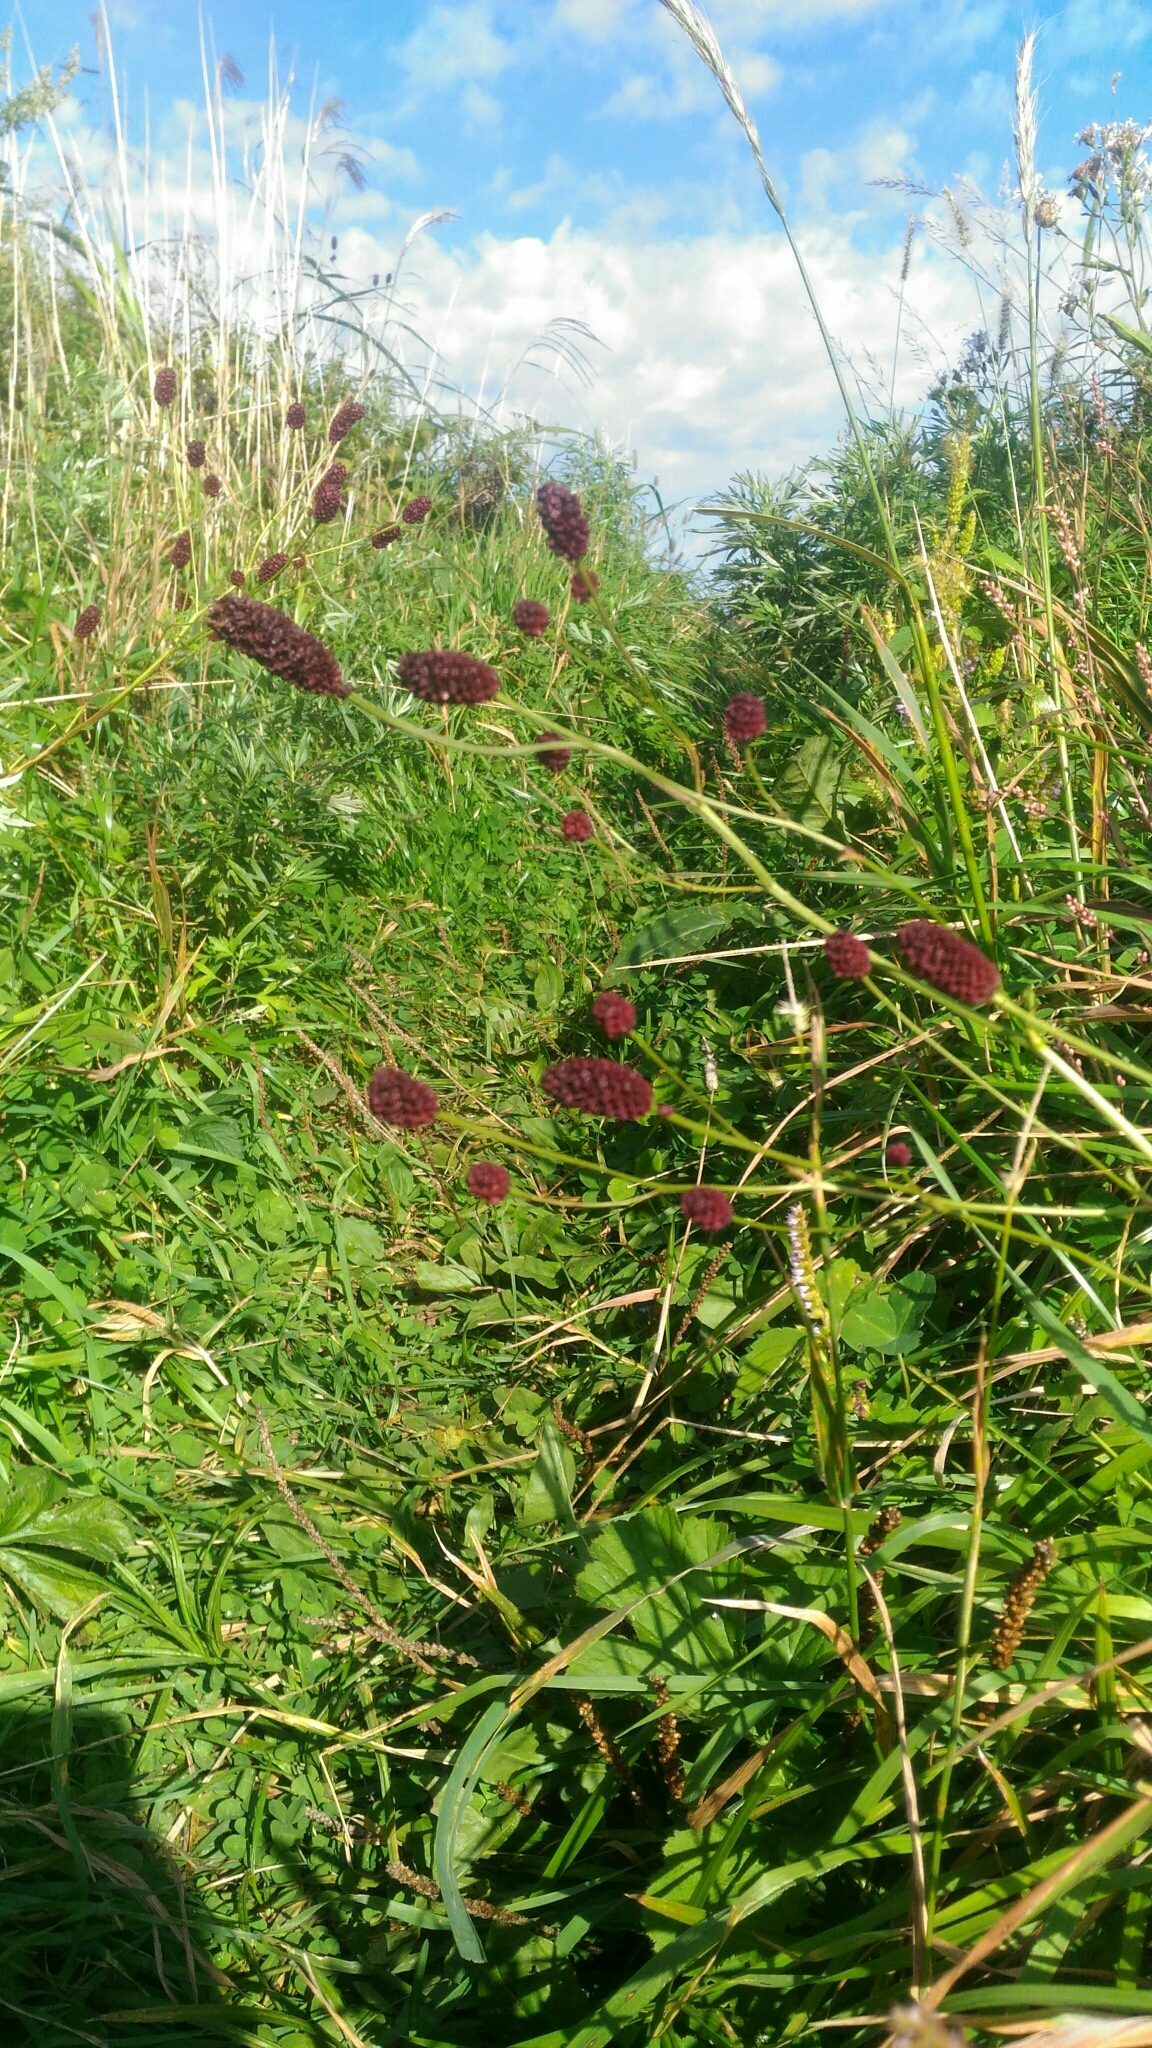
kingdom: Plantae
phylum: Tracheophyta
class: Magnoliopsida
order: Rosales
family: Rosaceae
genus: Sanguisorba
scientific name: Sanguisorba officinalis
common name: Great burnet
